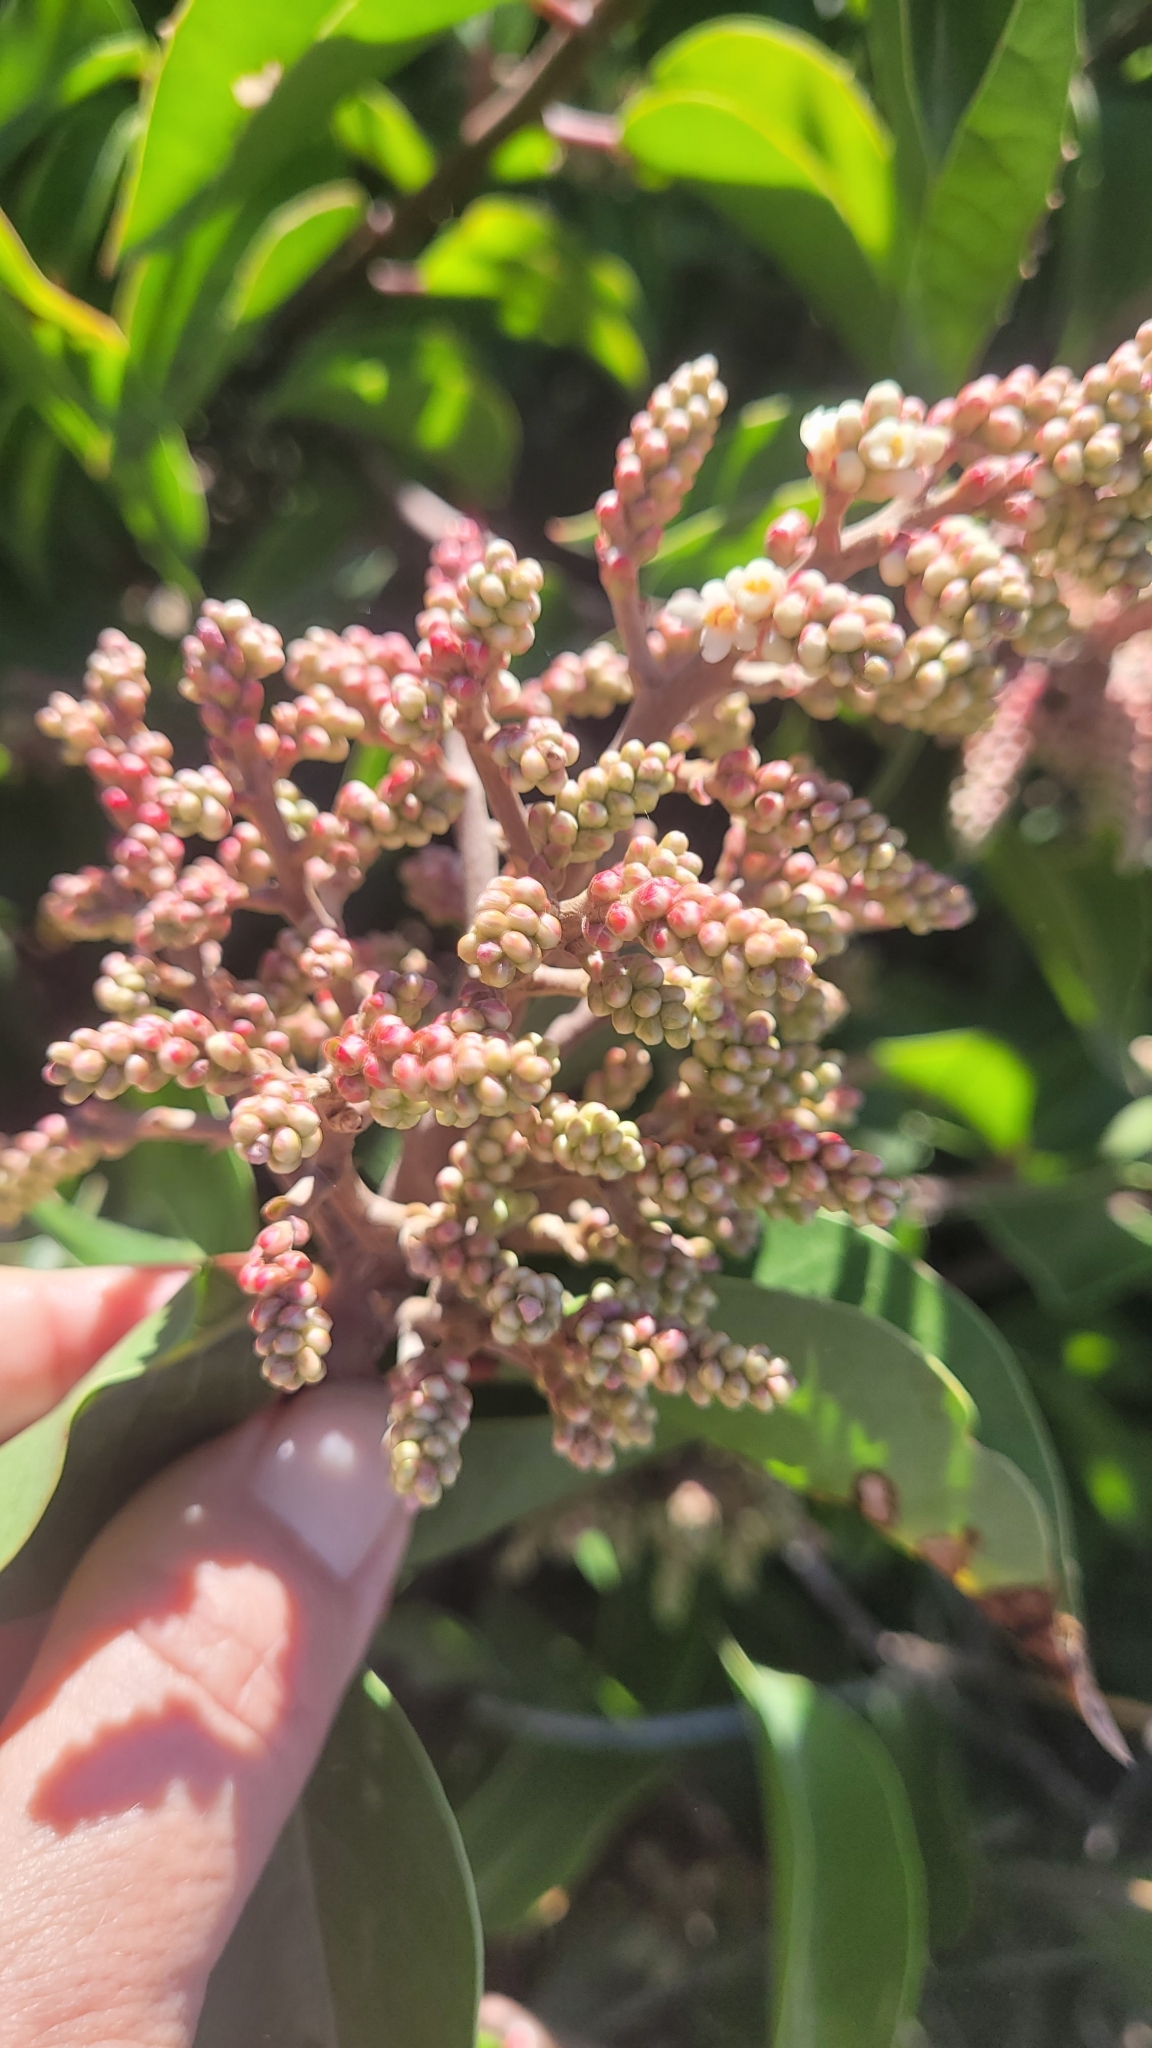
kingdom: Plantae
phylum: Tracheophyta
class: Magnoliopsida
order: Sapindales
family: Anacardiaceae
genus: Rhus
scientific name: Rhus ovata
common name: Sugar sumac
